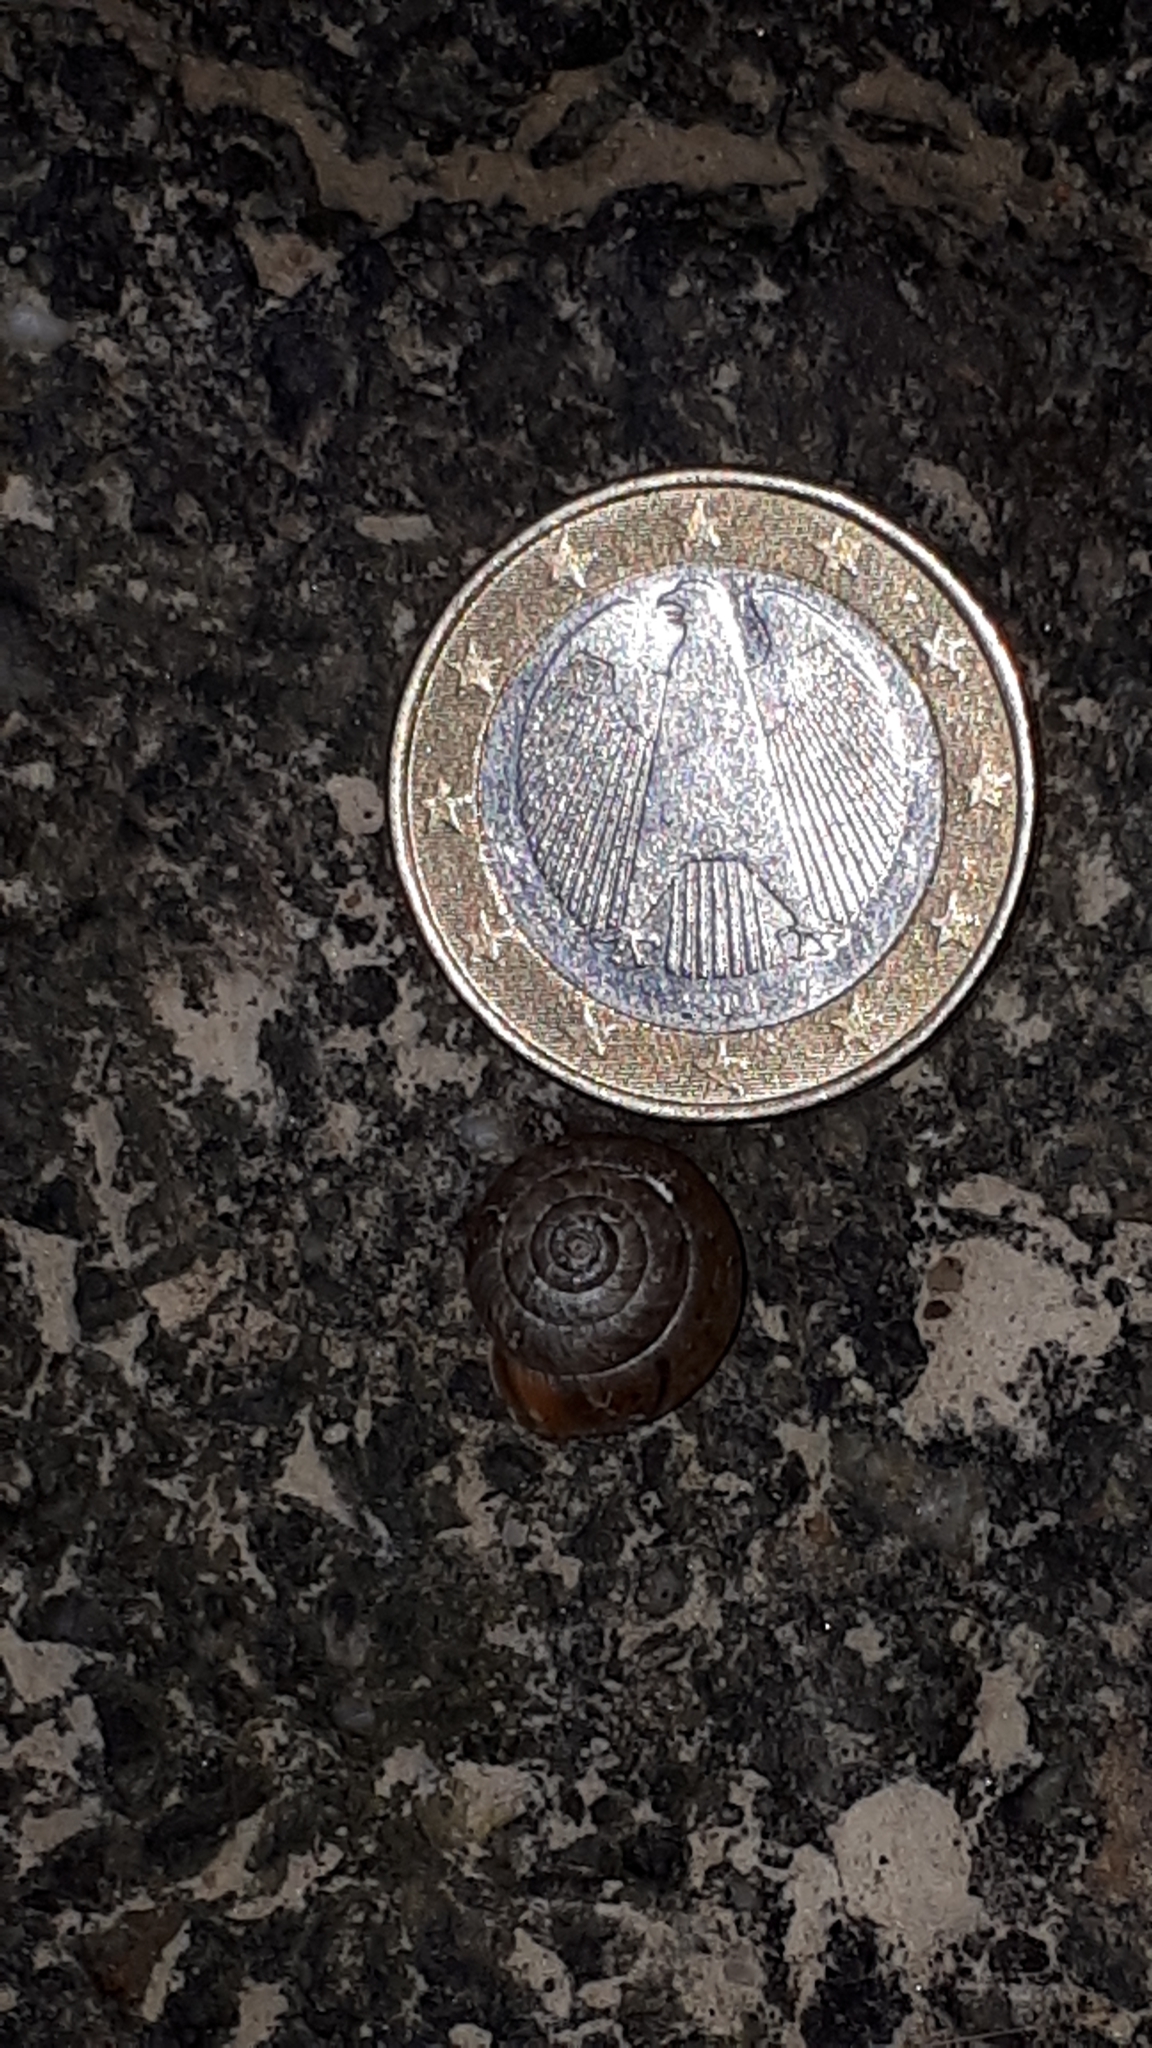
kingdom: Animalia
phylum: Mollusca
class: Gastropoda
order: Stylommatophora
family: Hygromiidae
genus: Monachoides
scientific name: Monachoides incarnatus
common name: Incarnate snail
